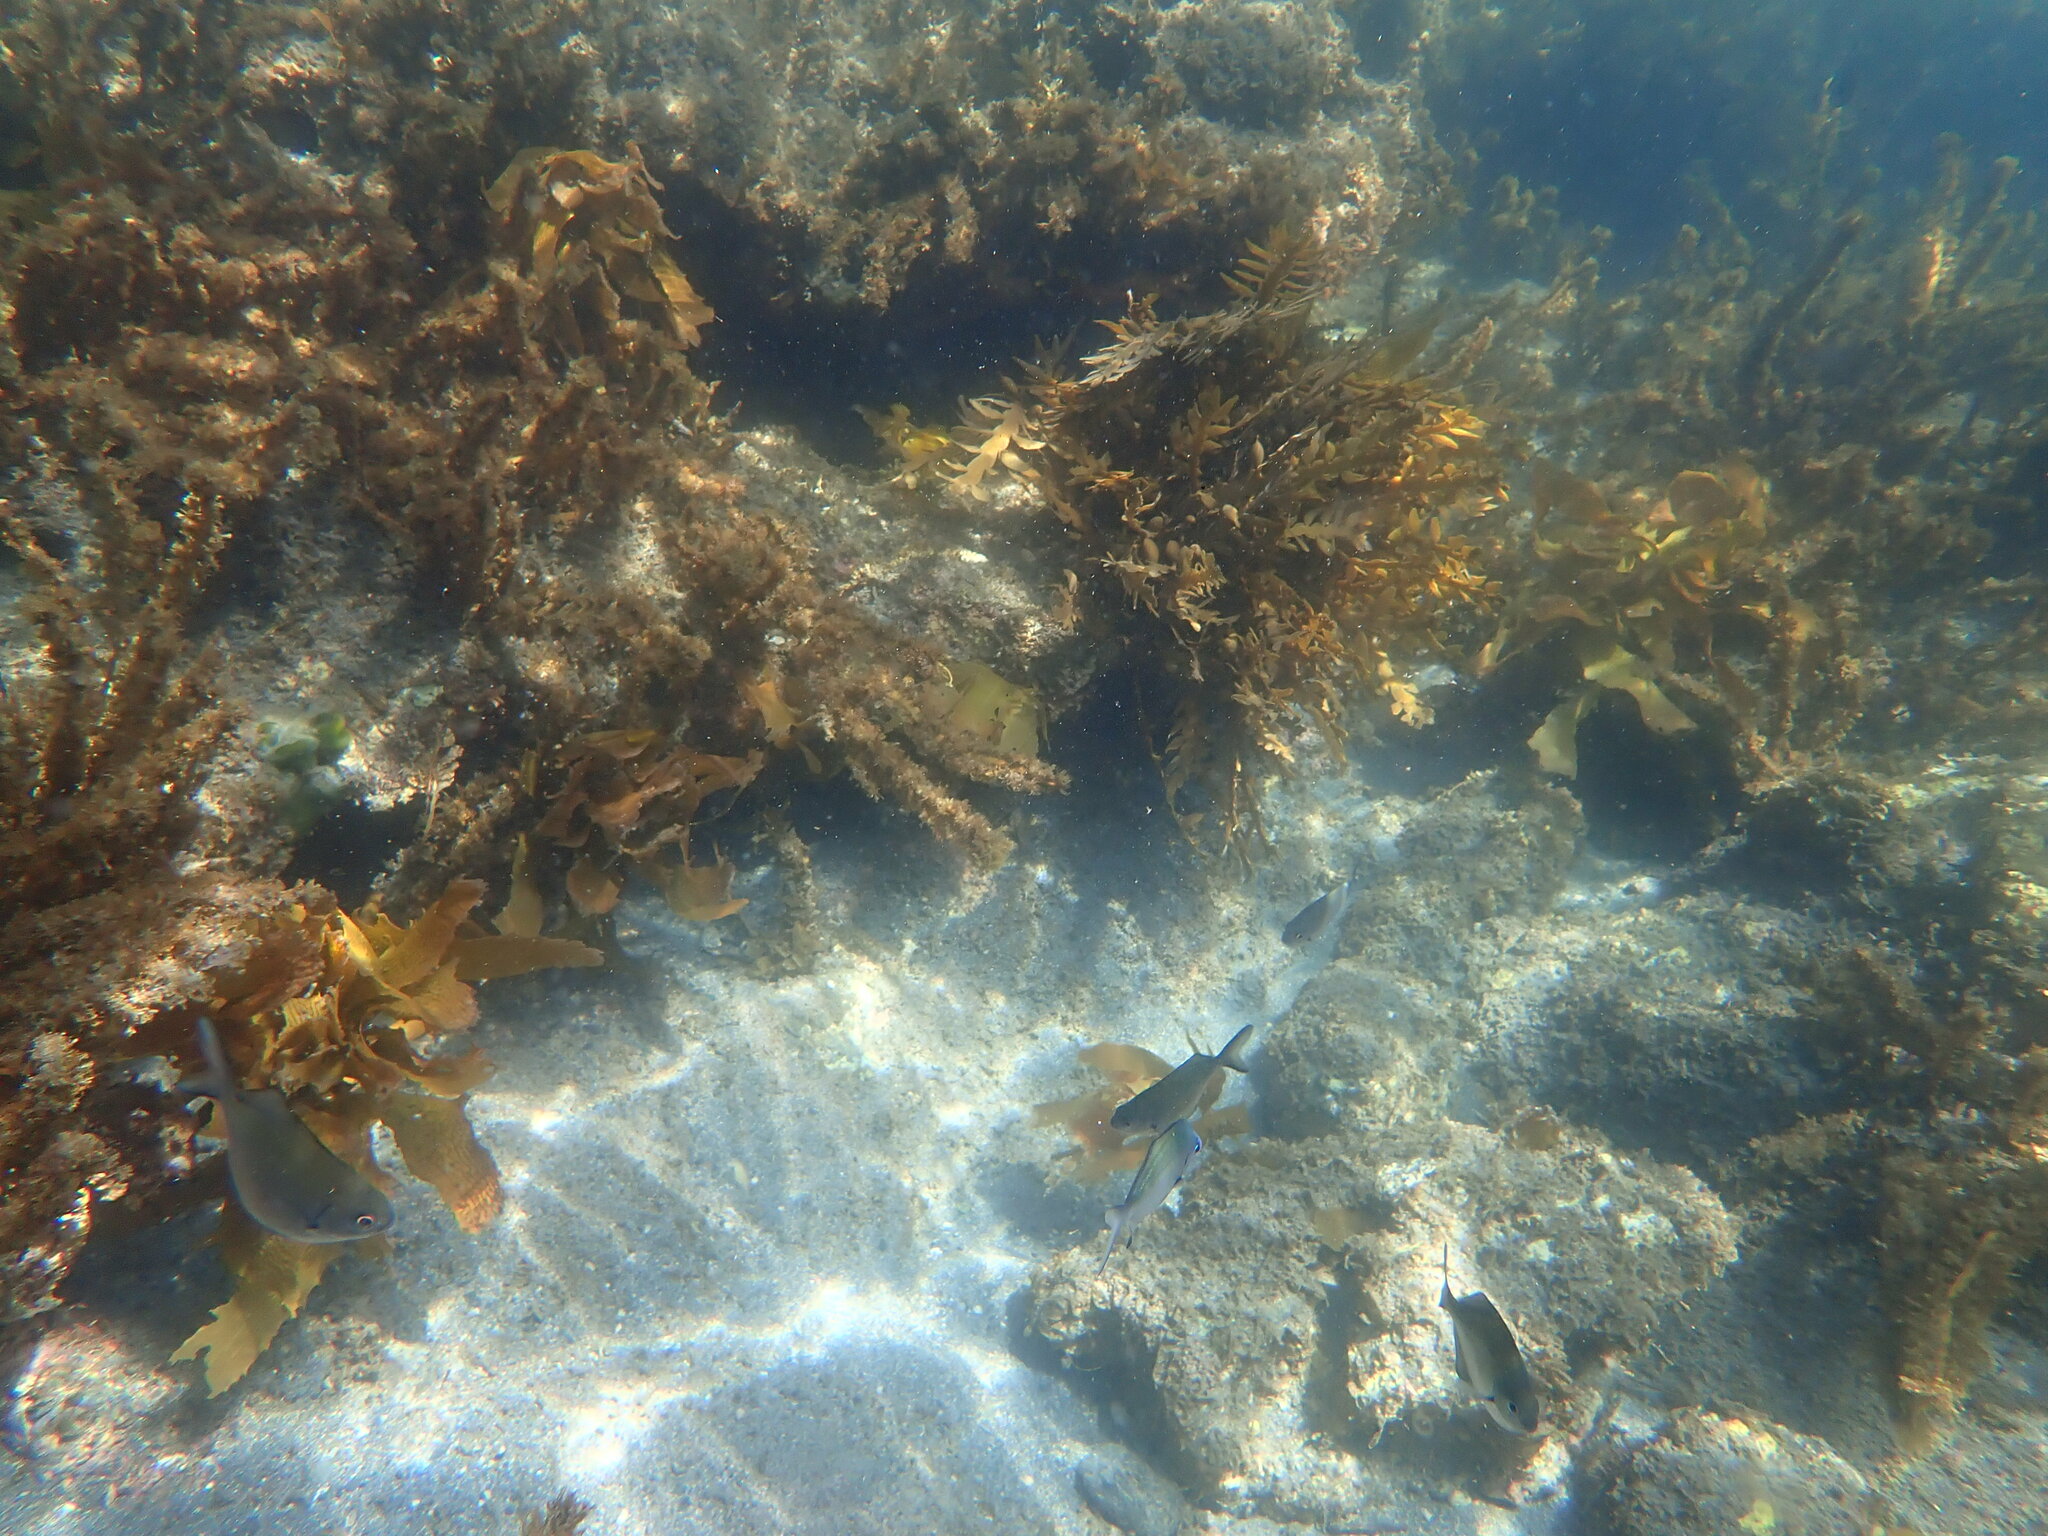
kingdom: Animalia
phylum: Chordata
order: Perciformes
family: Kyphosidae
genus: Scorpis
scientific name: Scorpis lineolata
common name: Sweep
